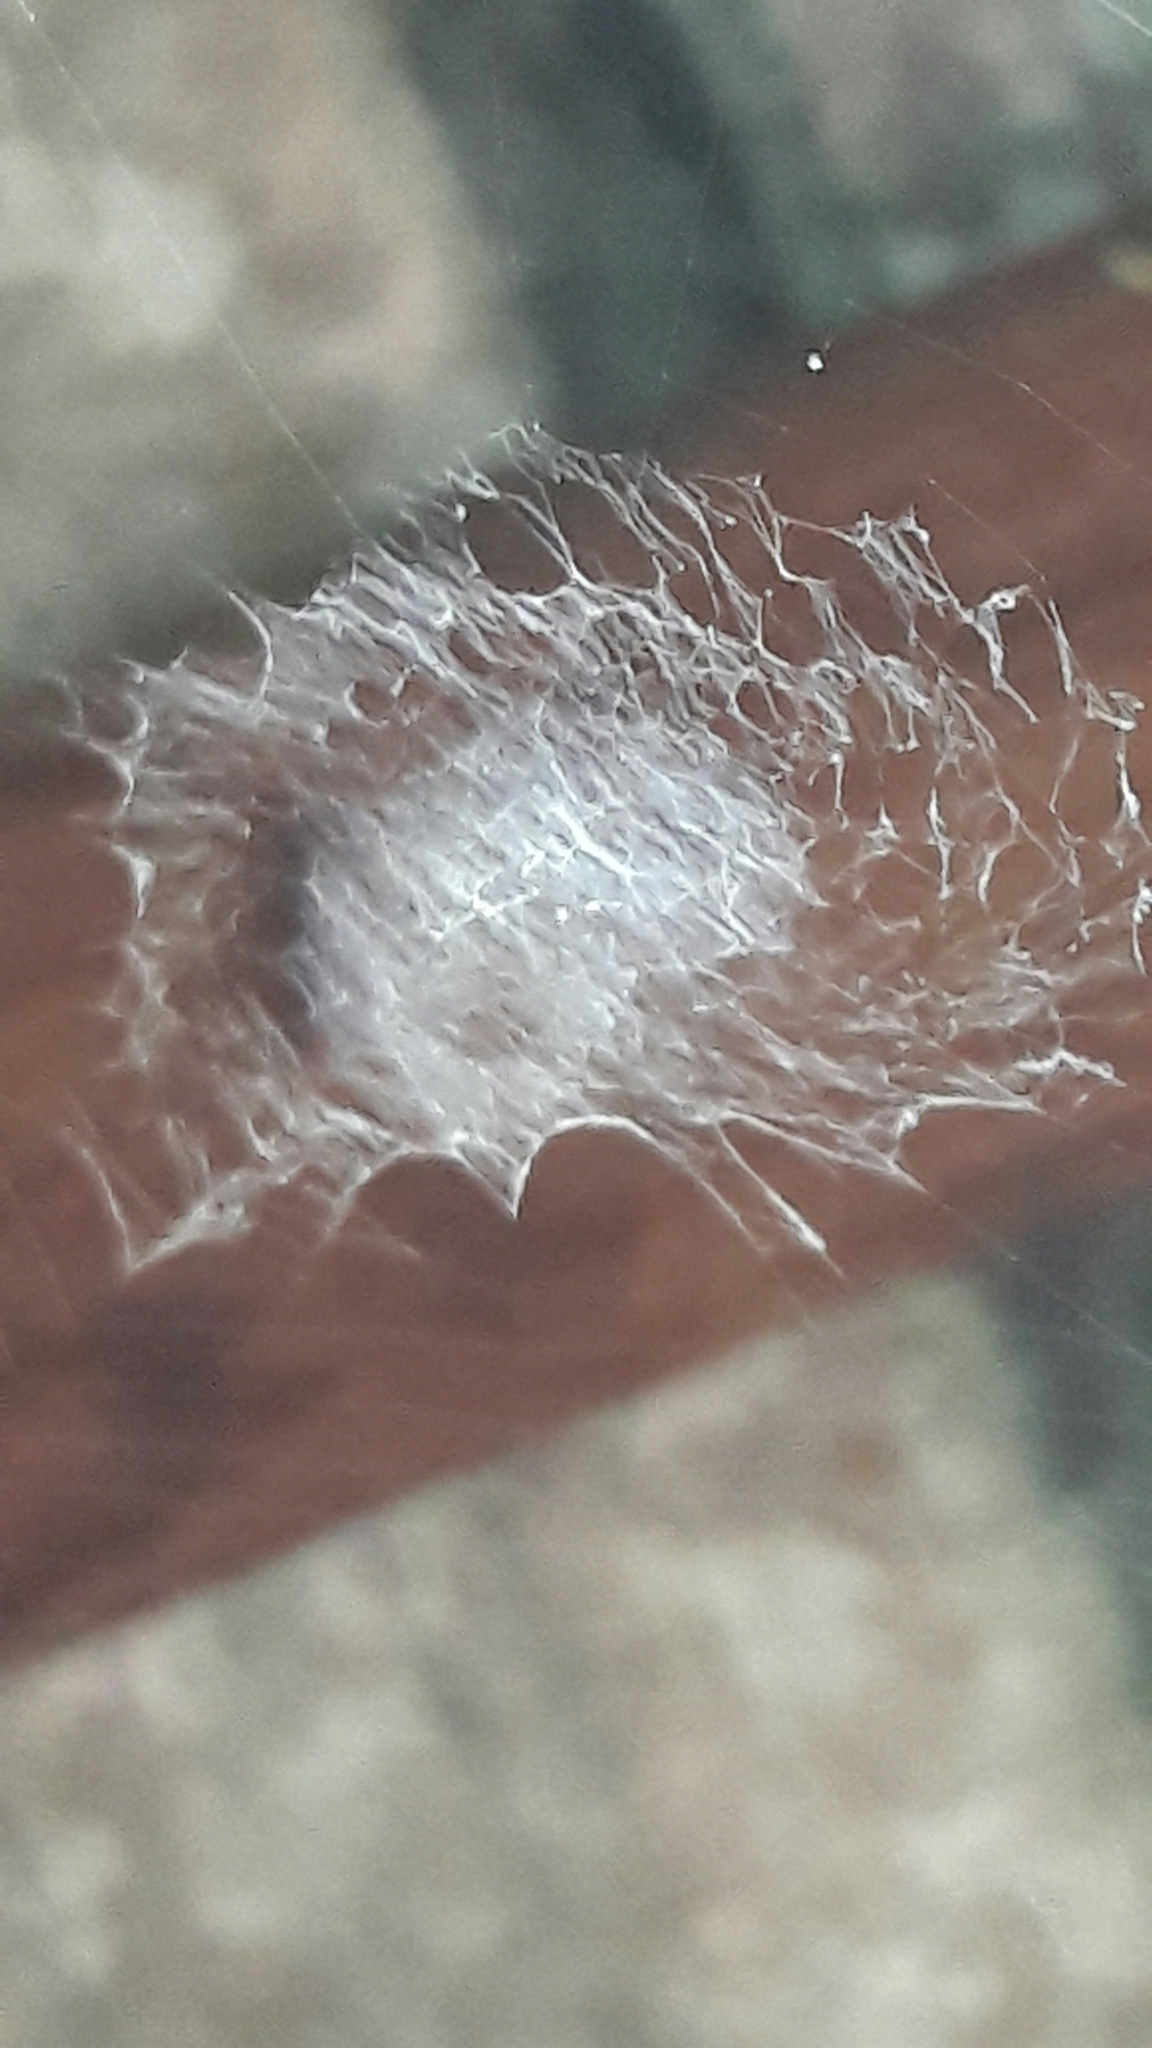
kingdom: Animalia
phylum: Arthropoda
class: Arachnida
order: Araneae
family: Uloboridae
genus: Zosis
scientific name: Zosis geniculata
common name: Hackled orb weavers
